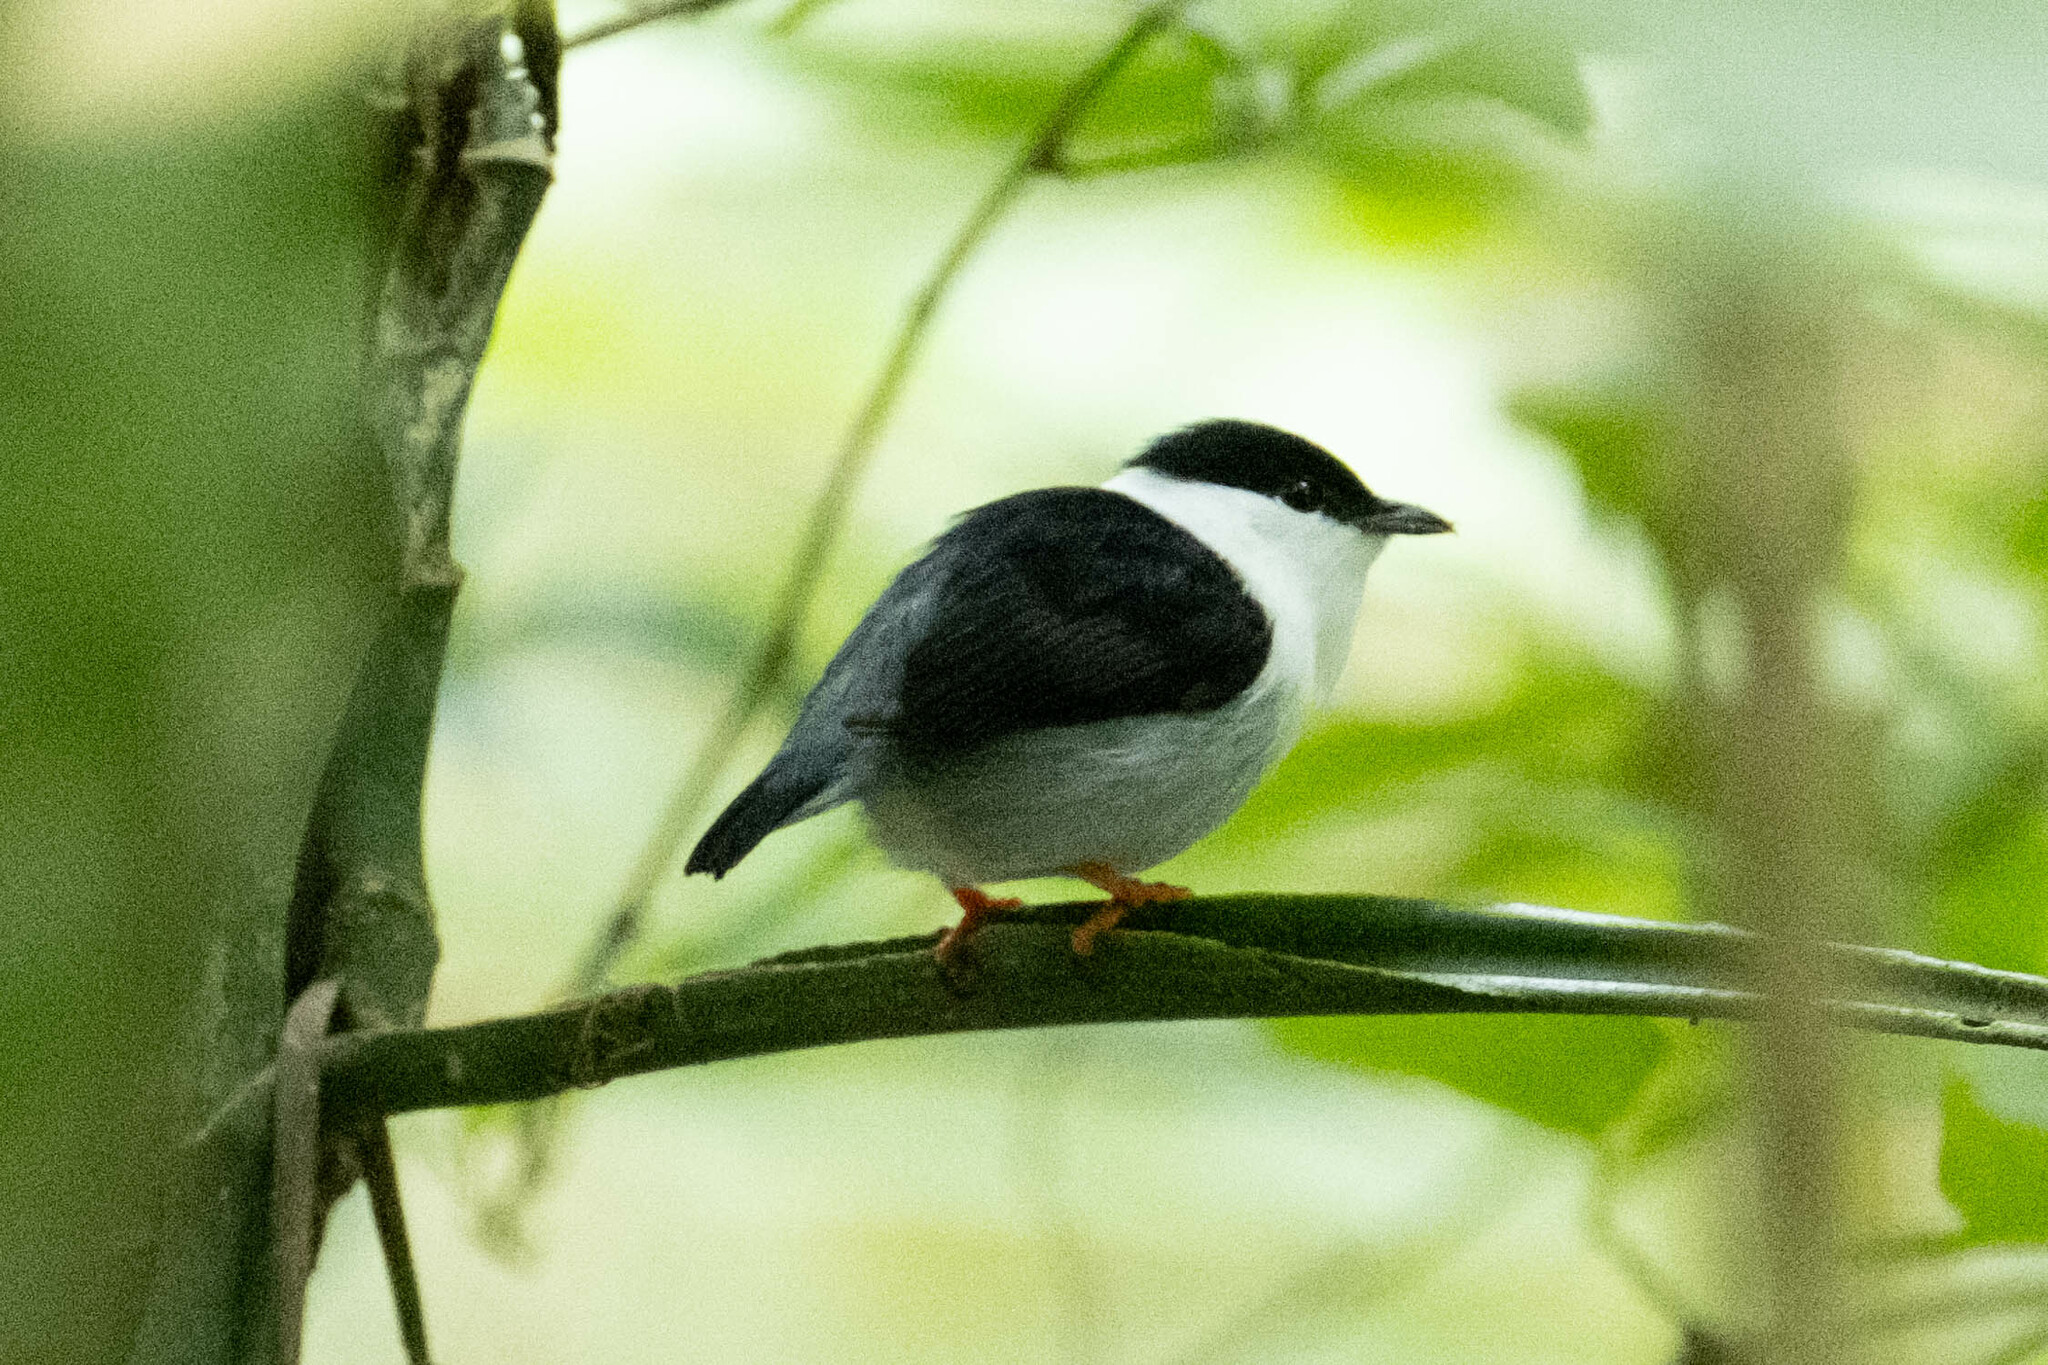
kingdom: Animalia
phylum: Chordata
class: Aves
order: Passeriformes
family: Pipridae
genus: Manacus
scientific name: Manacus manacus
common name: White-bearded manakin
